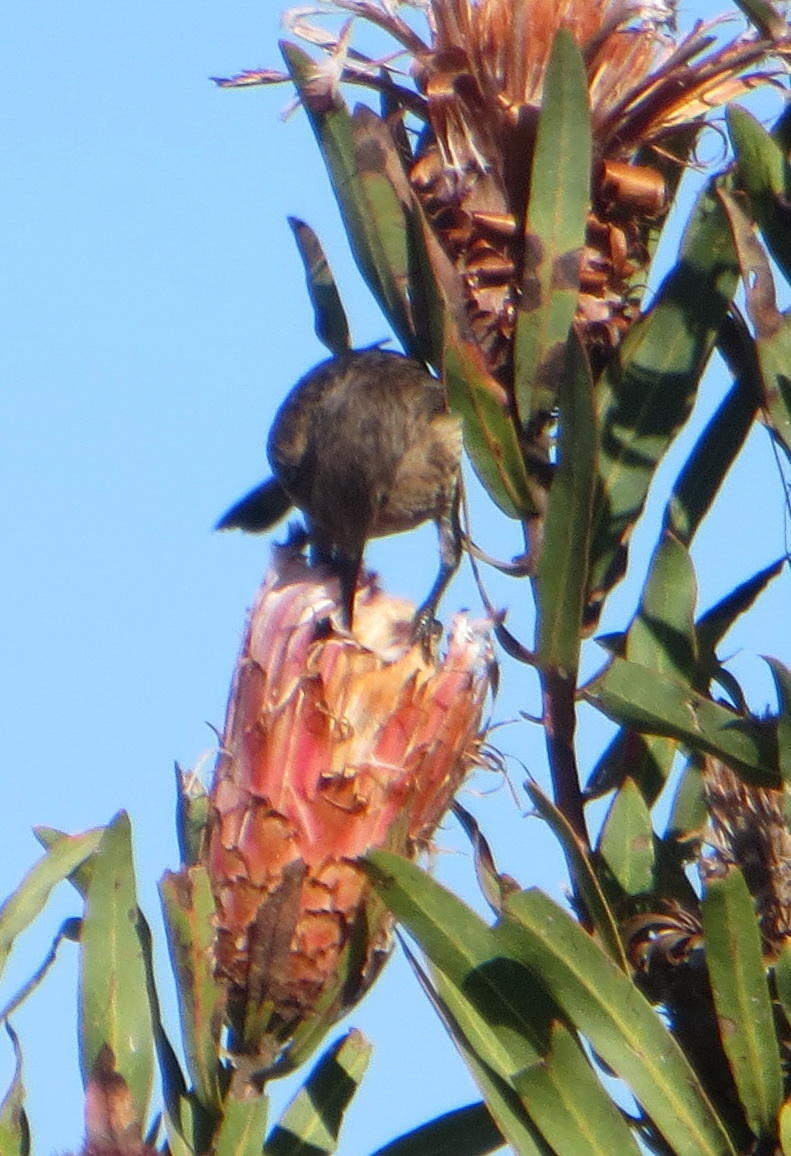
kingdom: Animalia
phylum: Chordata
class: Aves
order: Passeriformes
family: Promeropidae
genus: Promerops
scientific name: Promerops cafer
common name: Cape sugarbird
